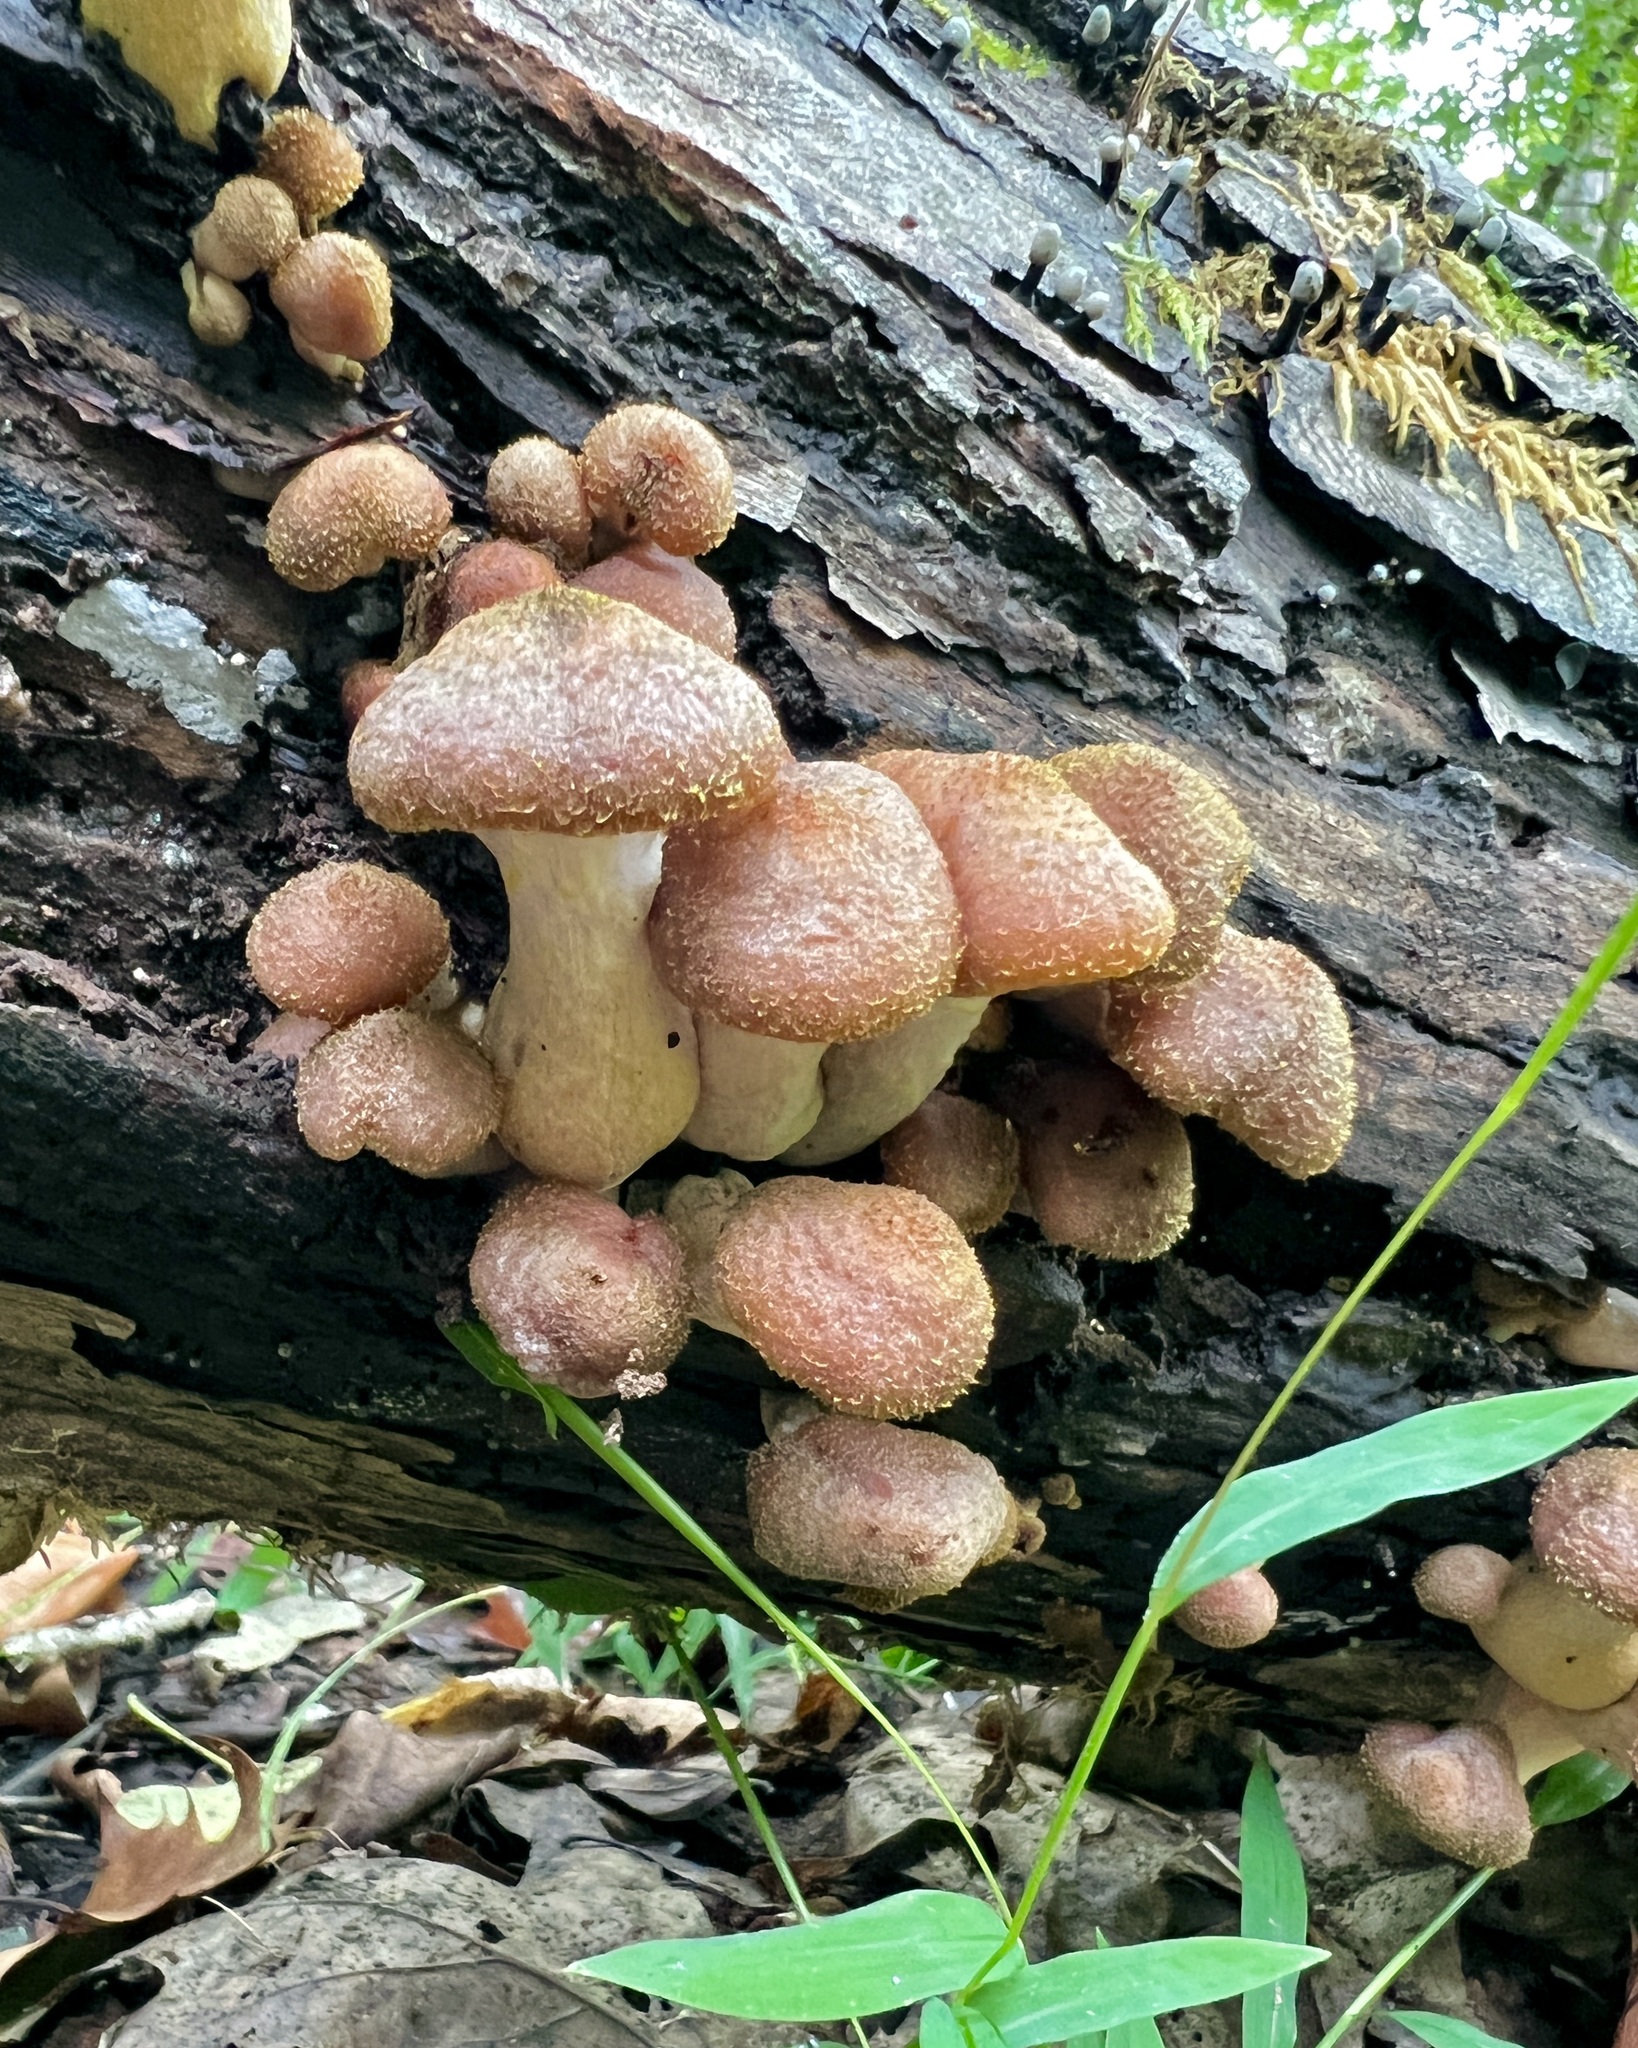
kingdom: Fungi
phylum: Basidiomycota
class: Agaricomycetes
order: Agaricales
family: Physalacriaceae
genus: Armillaria
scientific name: Armillaria gallica
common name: Bulbous honey fungus
